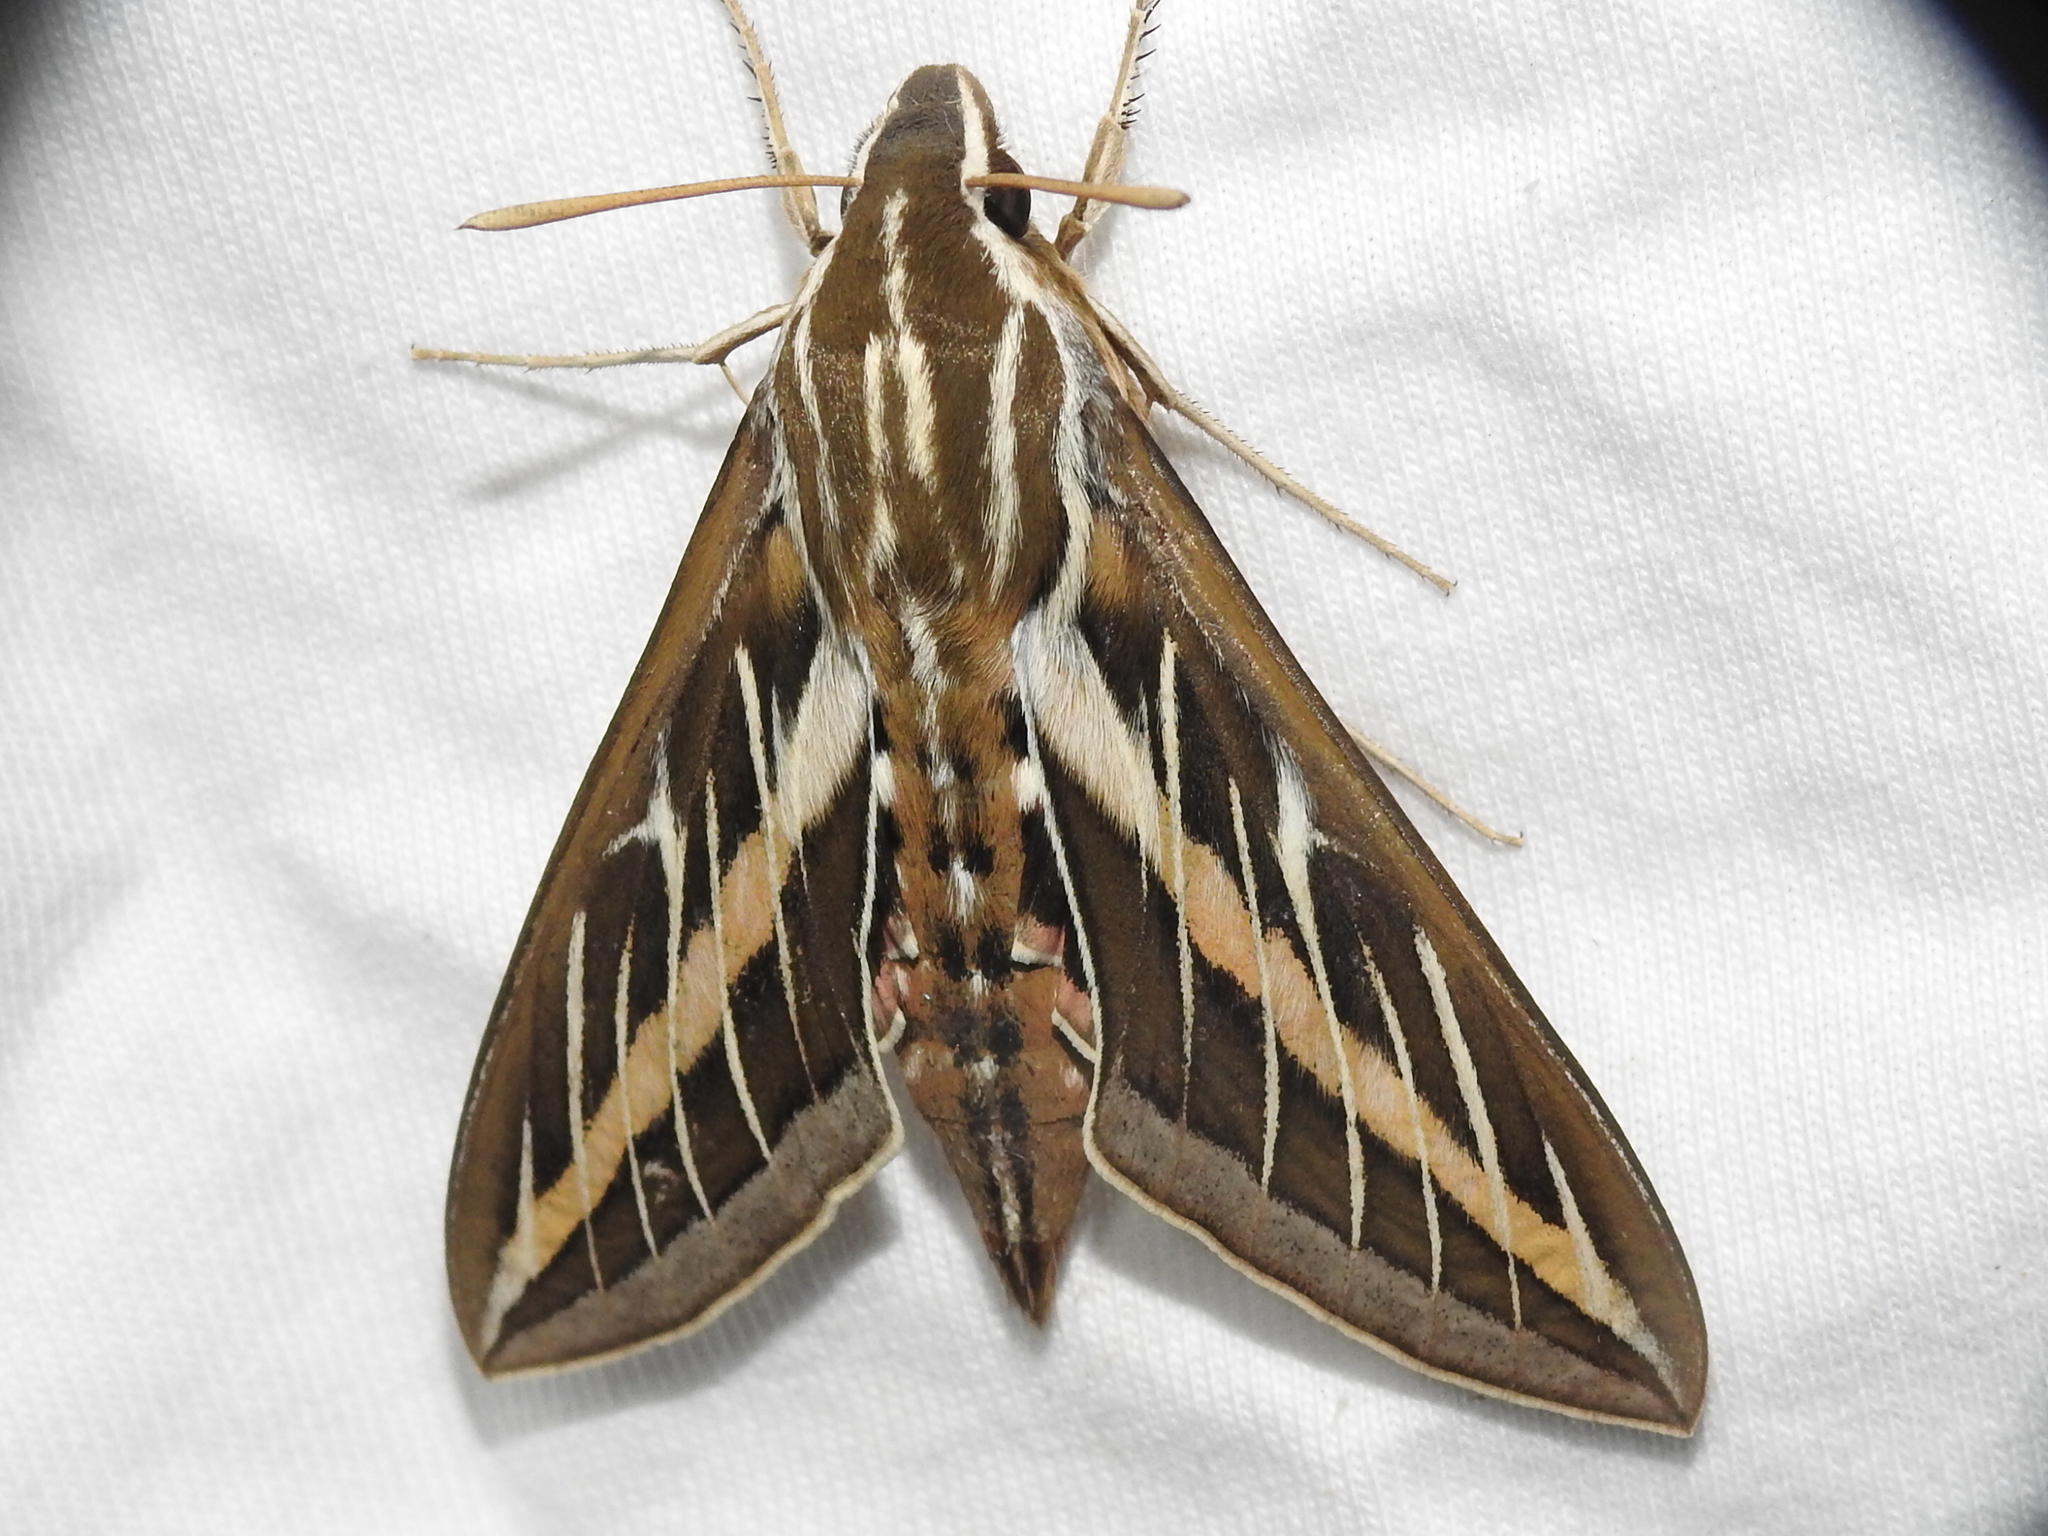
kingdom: Animalia
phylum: Arthropoda
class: Insecta
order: Lepidoptera
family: Sphingidae
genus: Hyles
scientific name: Hyles lineata
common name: White-lined sphinx
